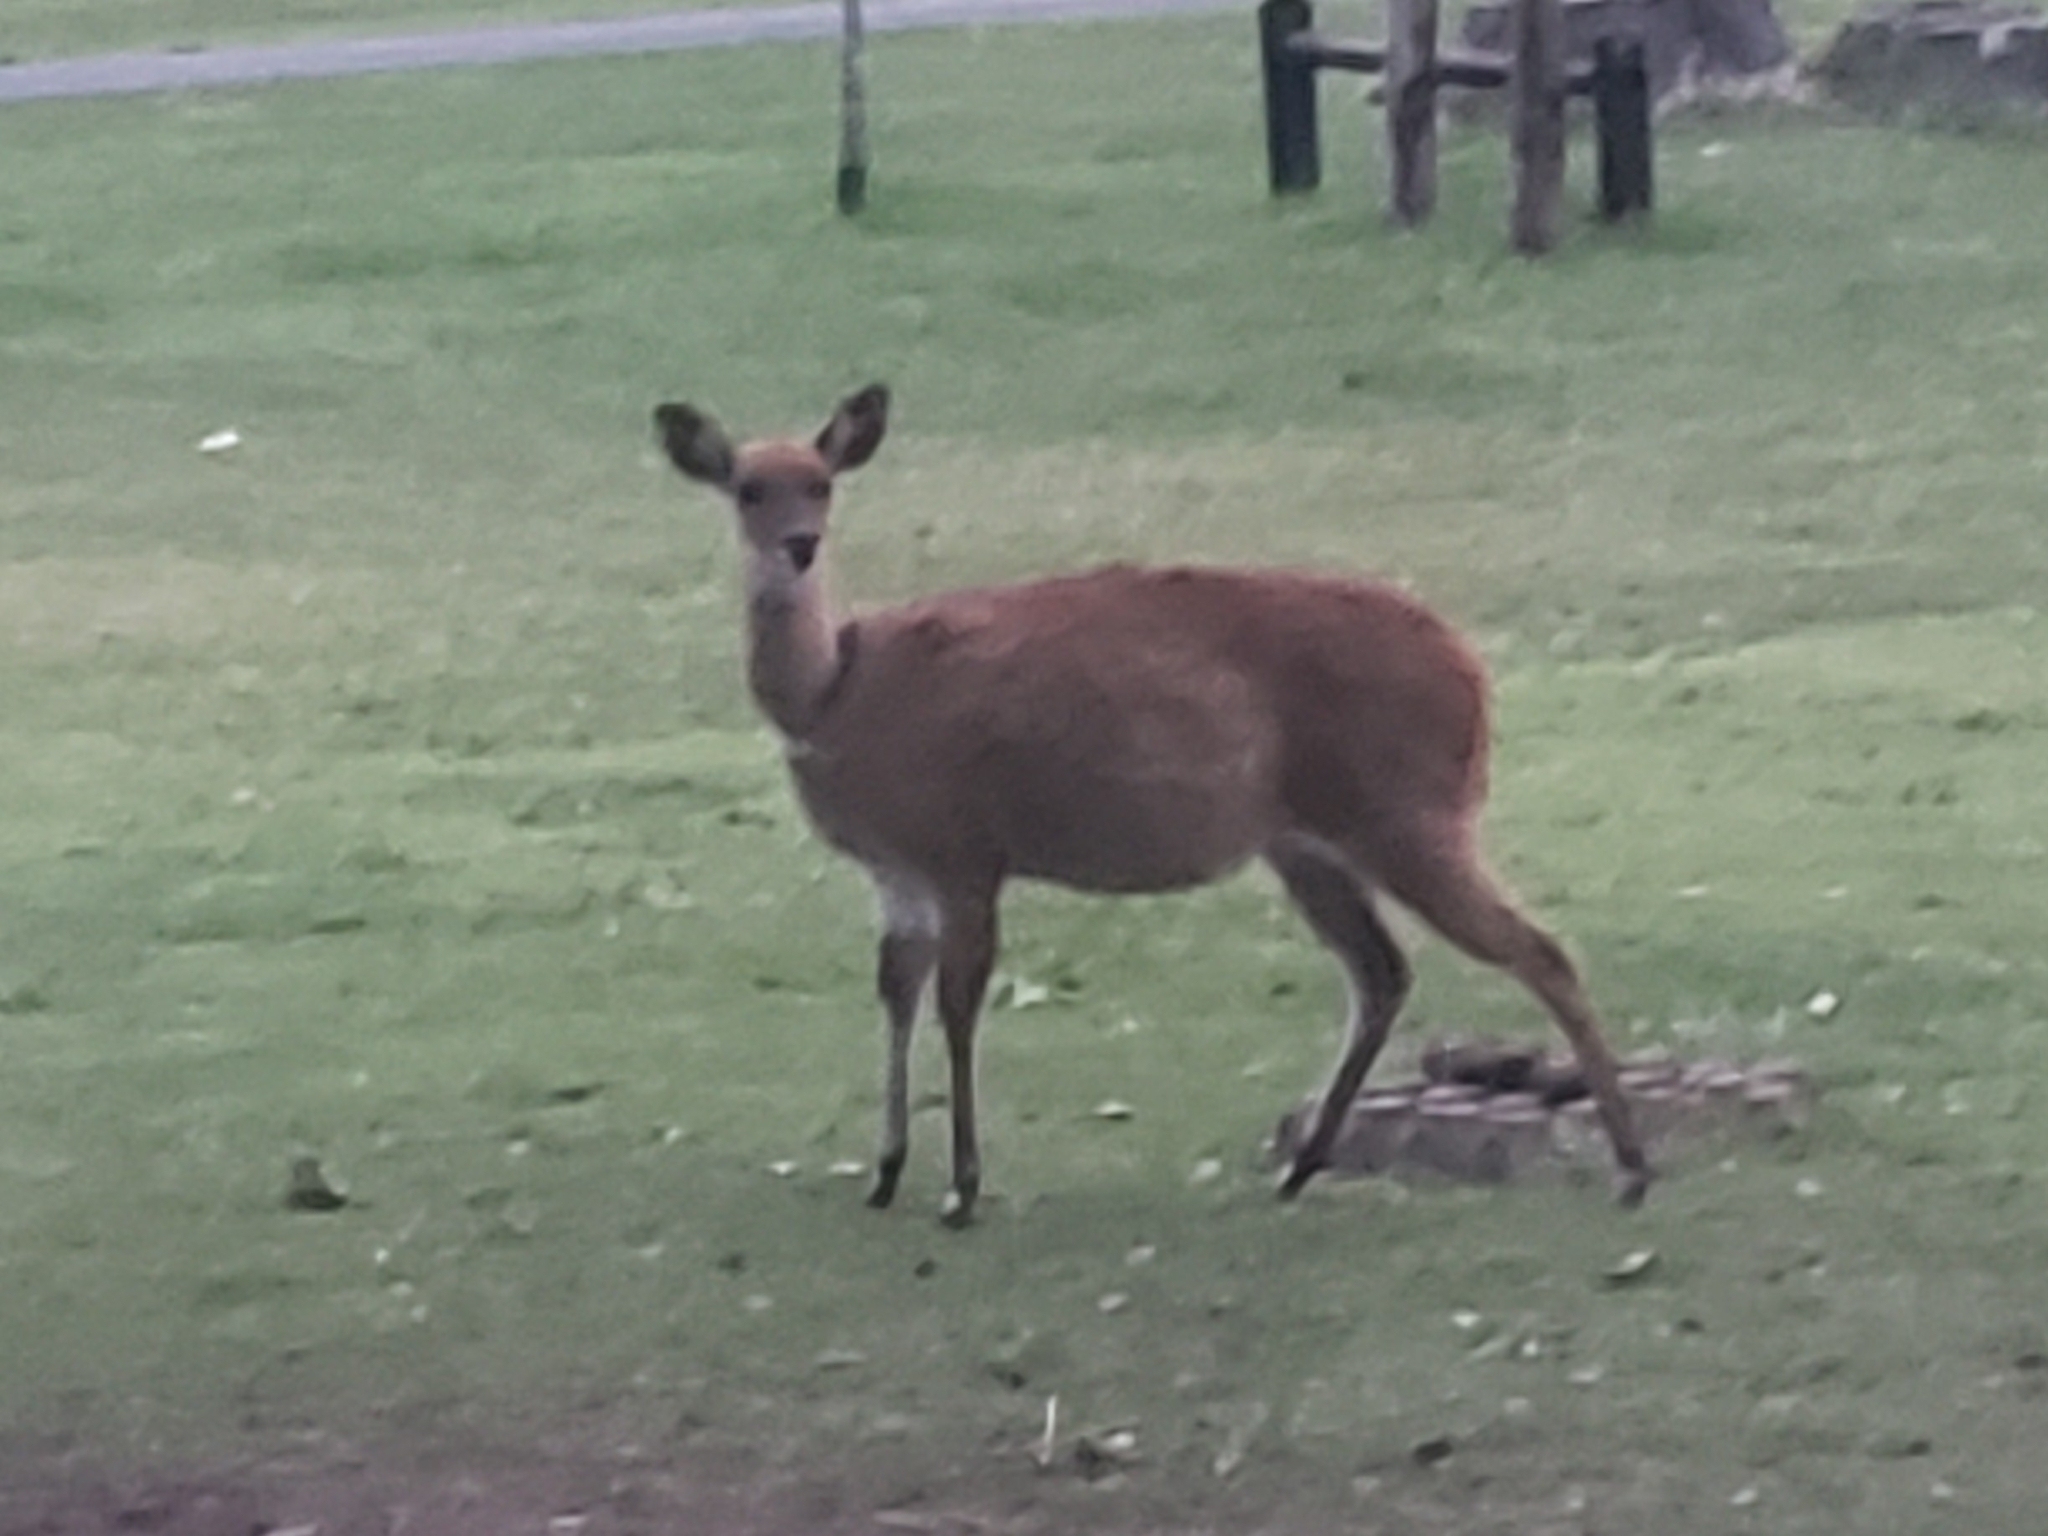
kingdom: Animalia
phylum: Chordata
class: Mammalia
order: Artiodactyla
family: Bovidae
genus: Tragelaphus
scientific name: Tragelaphus scriptus
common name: Bushbuck
